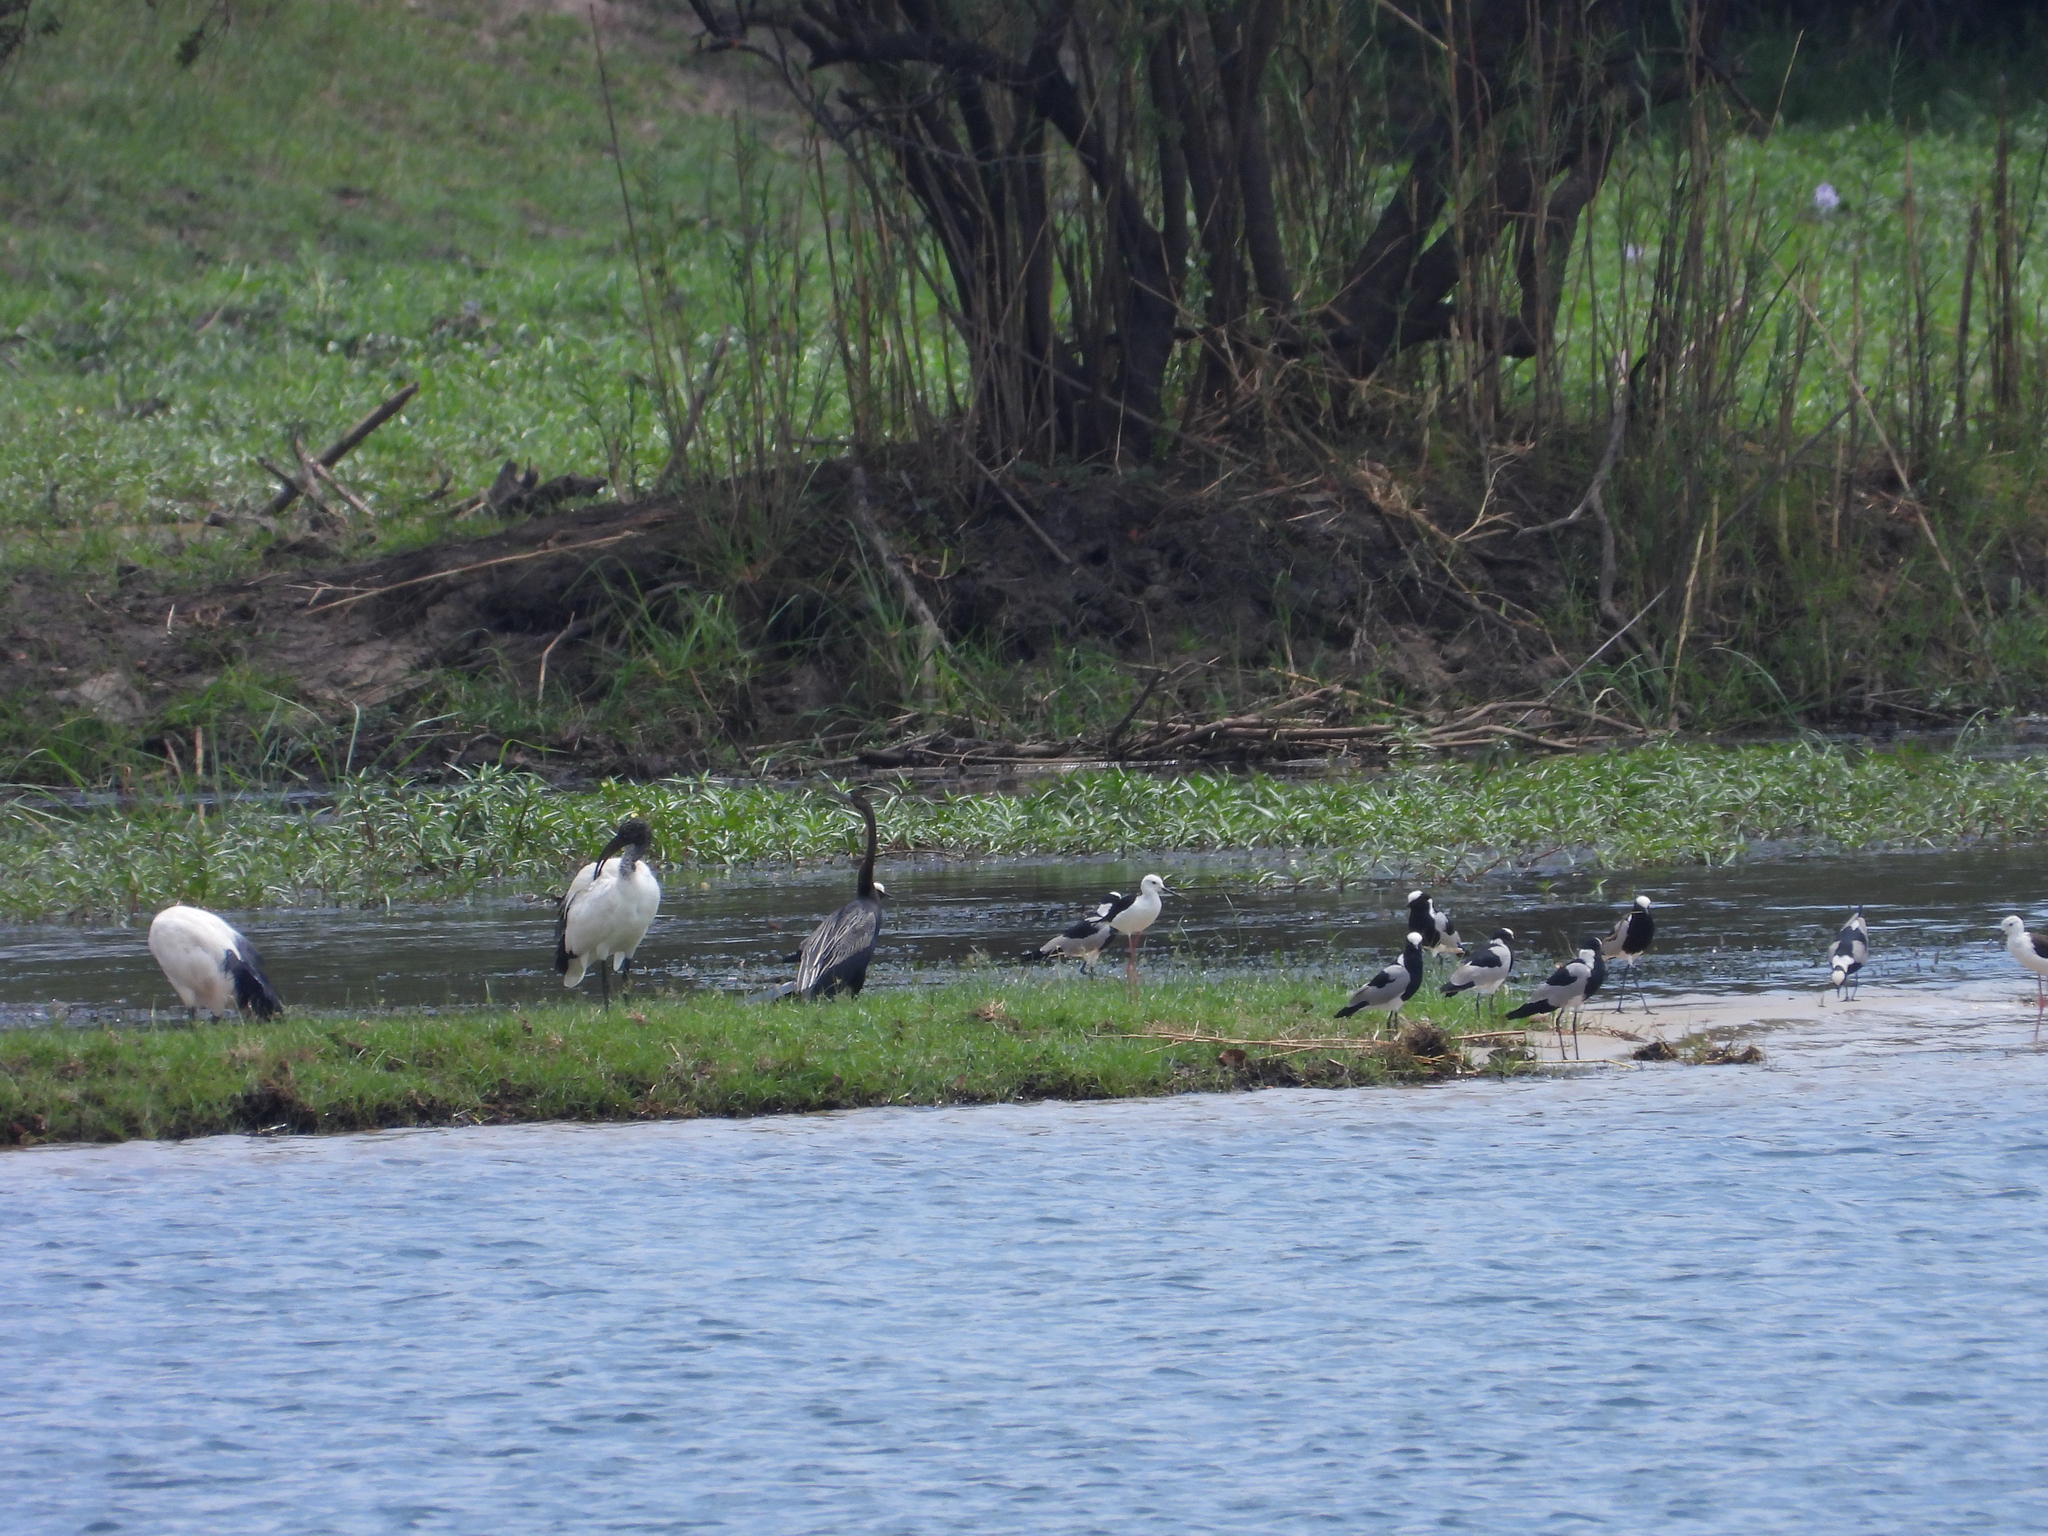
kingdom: Animalia
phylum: Chordata
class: Aves
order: Suliformes
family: Anhingidae
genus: Anhinga
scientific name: Anhinga rufa
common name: African darter
